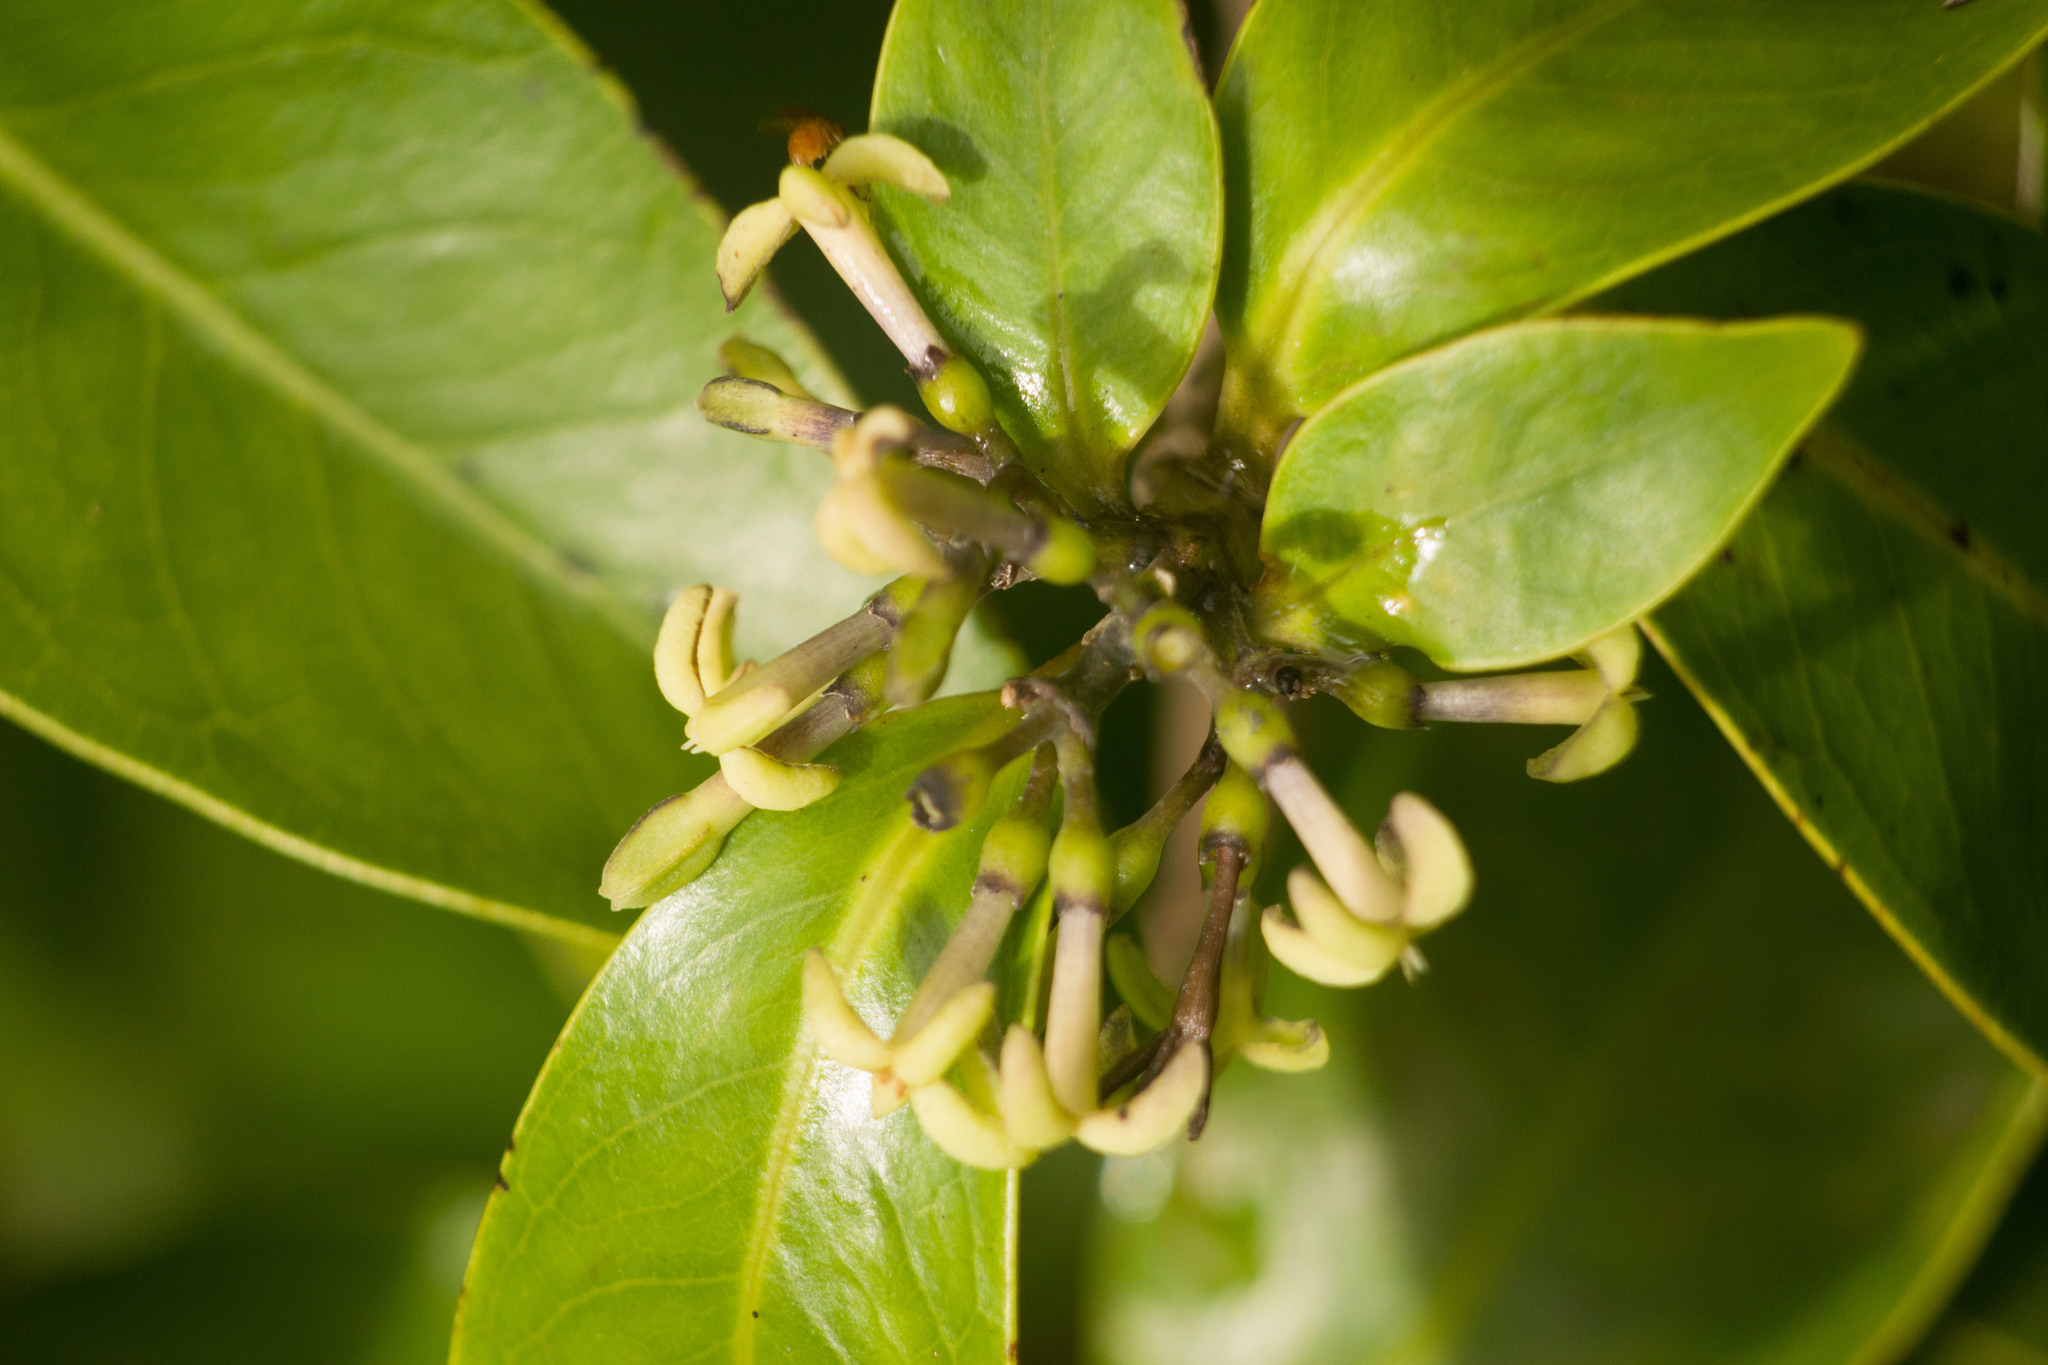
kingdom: Plantae
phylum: Tracheophyta
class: Magnoliopsida
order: Gentianales
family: Rubiaceae
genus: Kadua
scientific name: Kadua affinis
